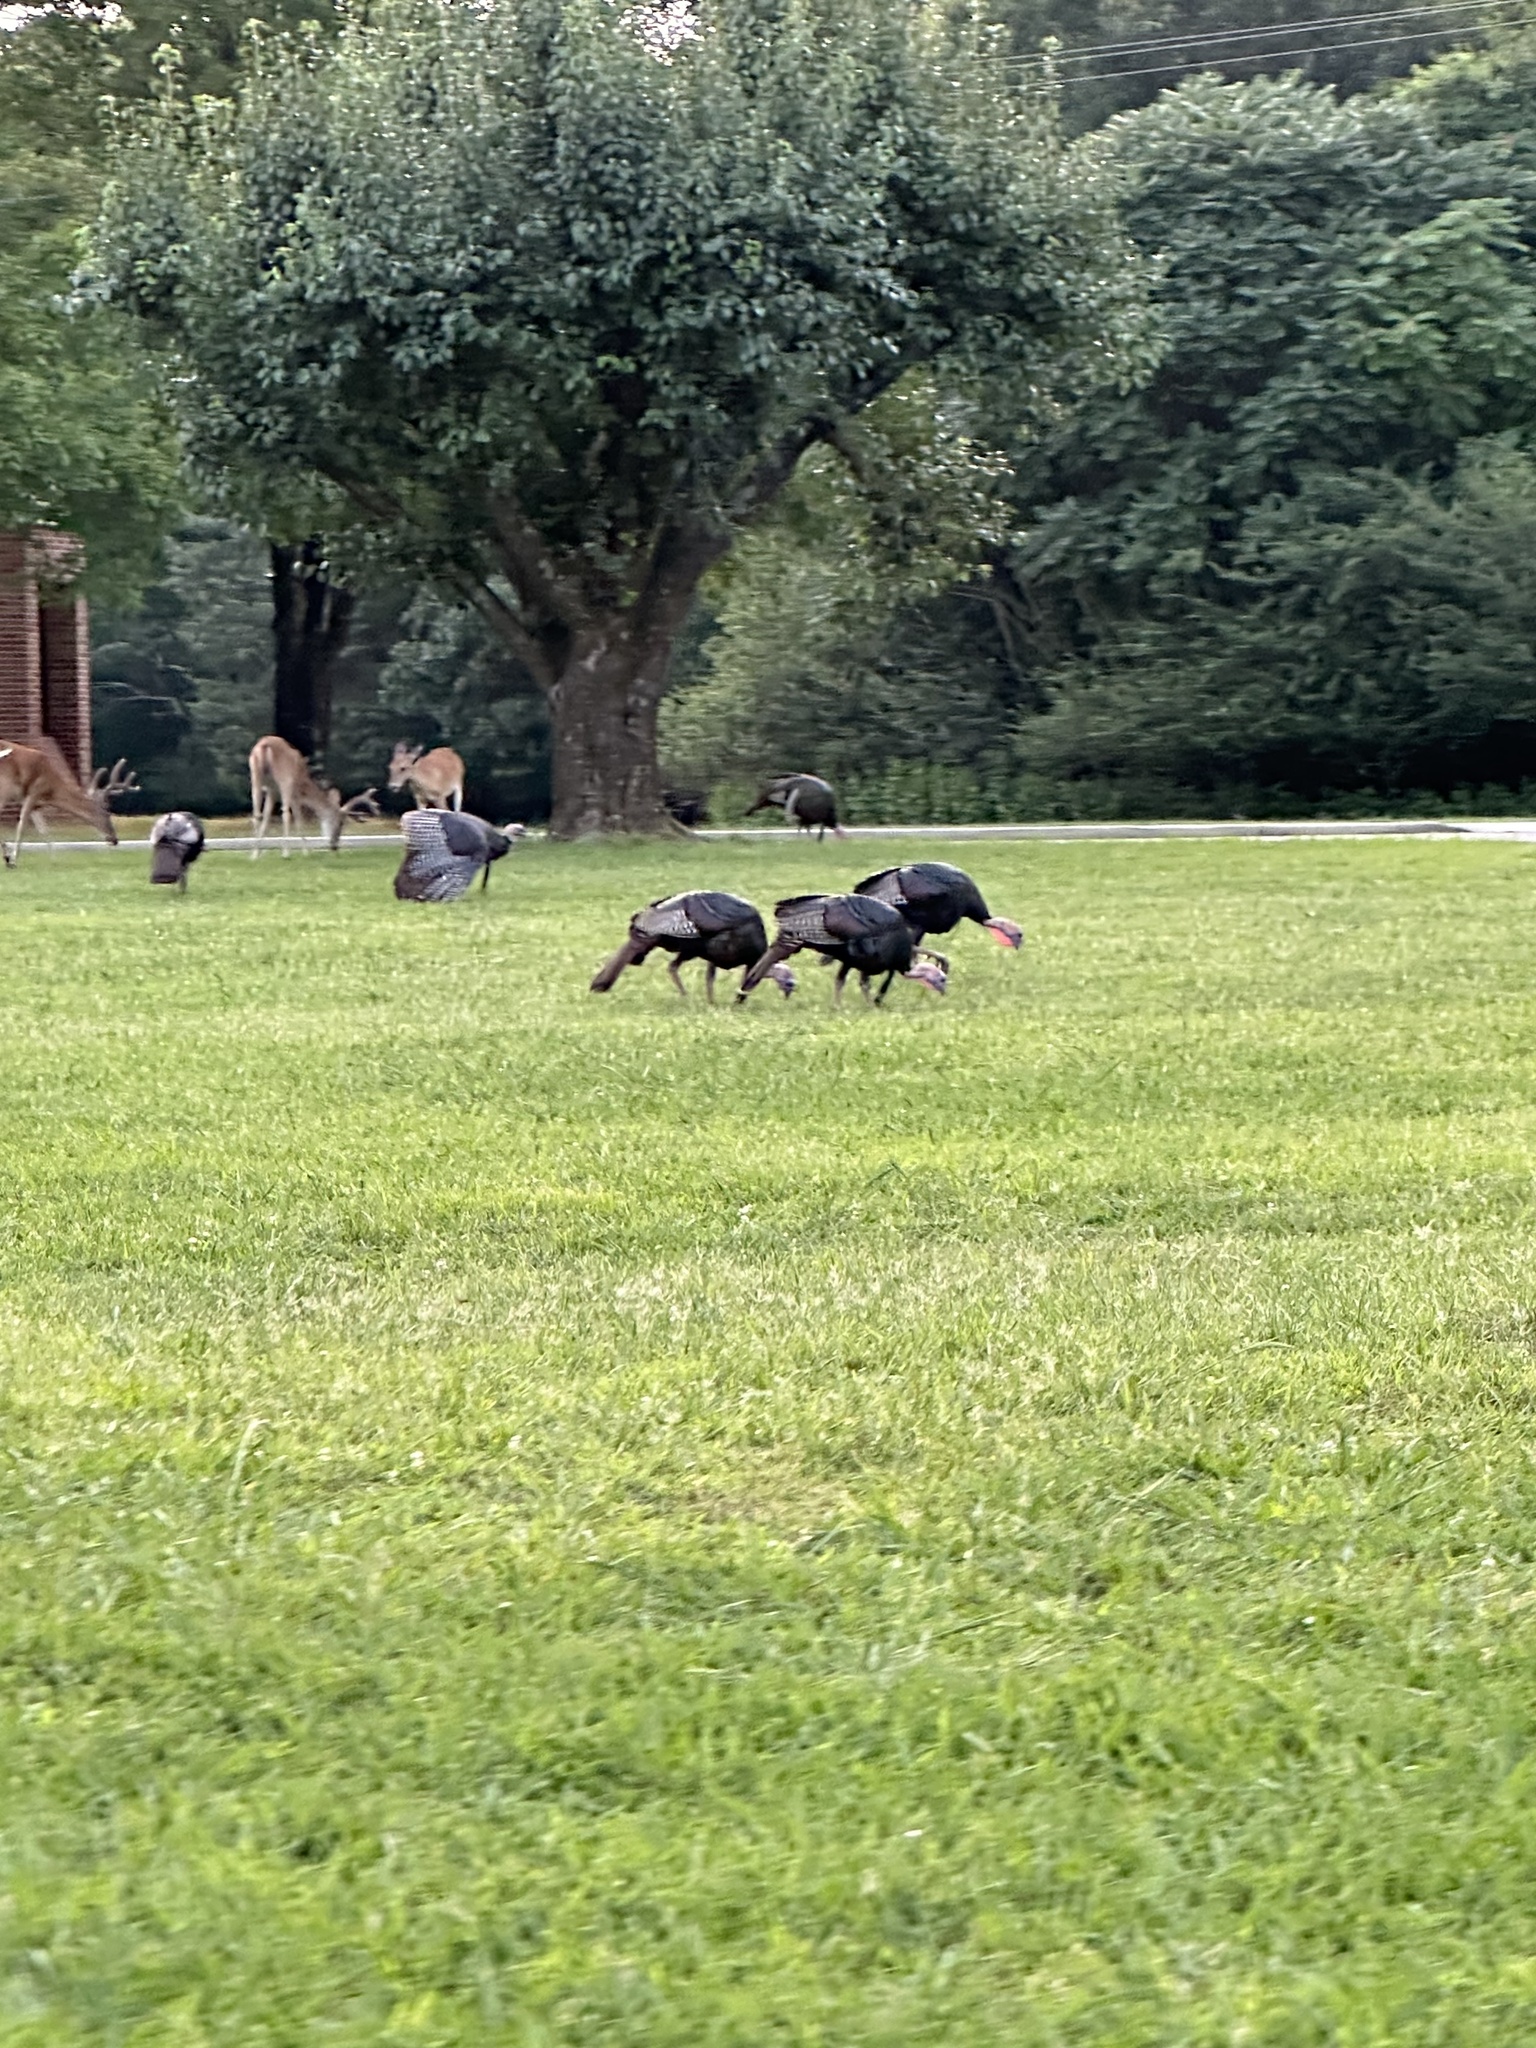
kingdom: Animalia
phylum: Chordata
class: Aves
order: Galliformes
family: Phasianidae
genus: Meleagris
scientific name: Meleagris gallopavo
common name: Wild turkey
